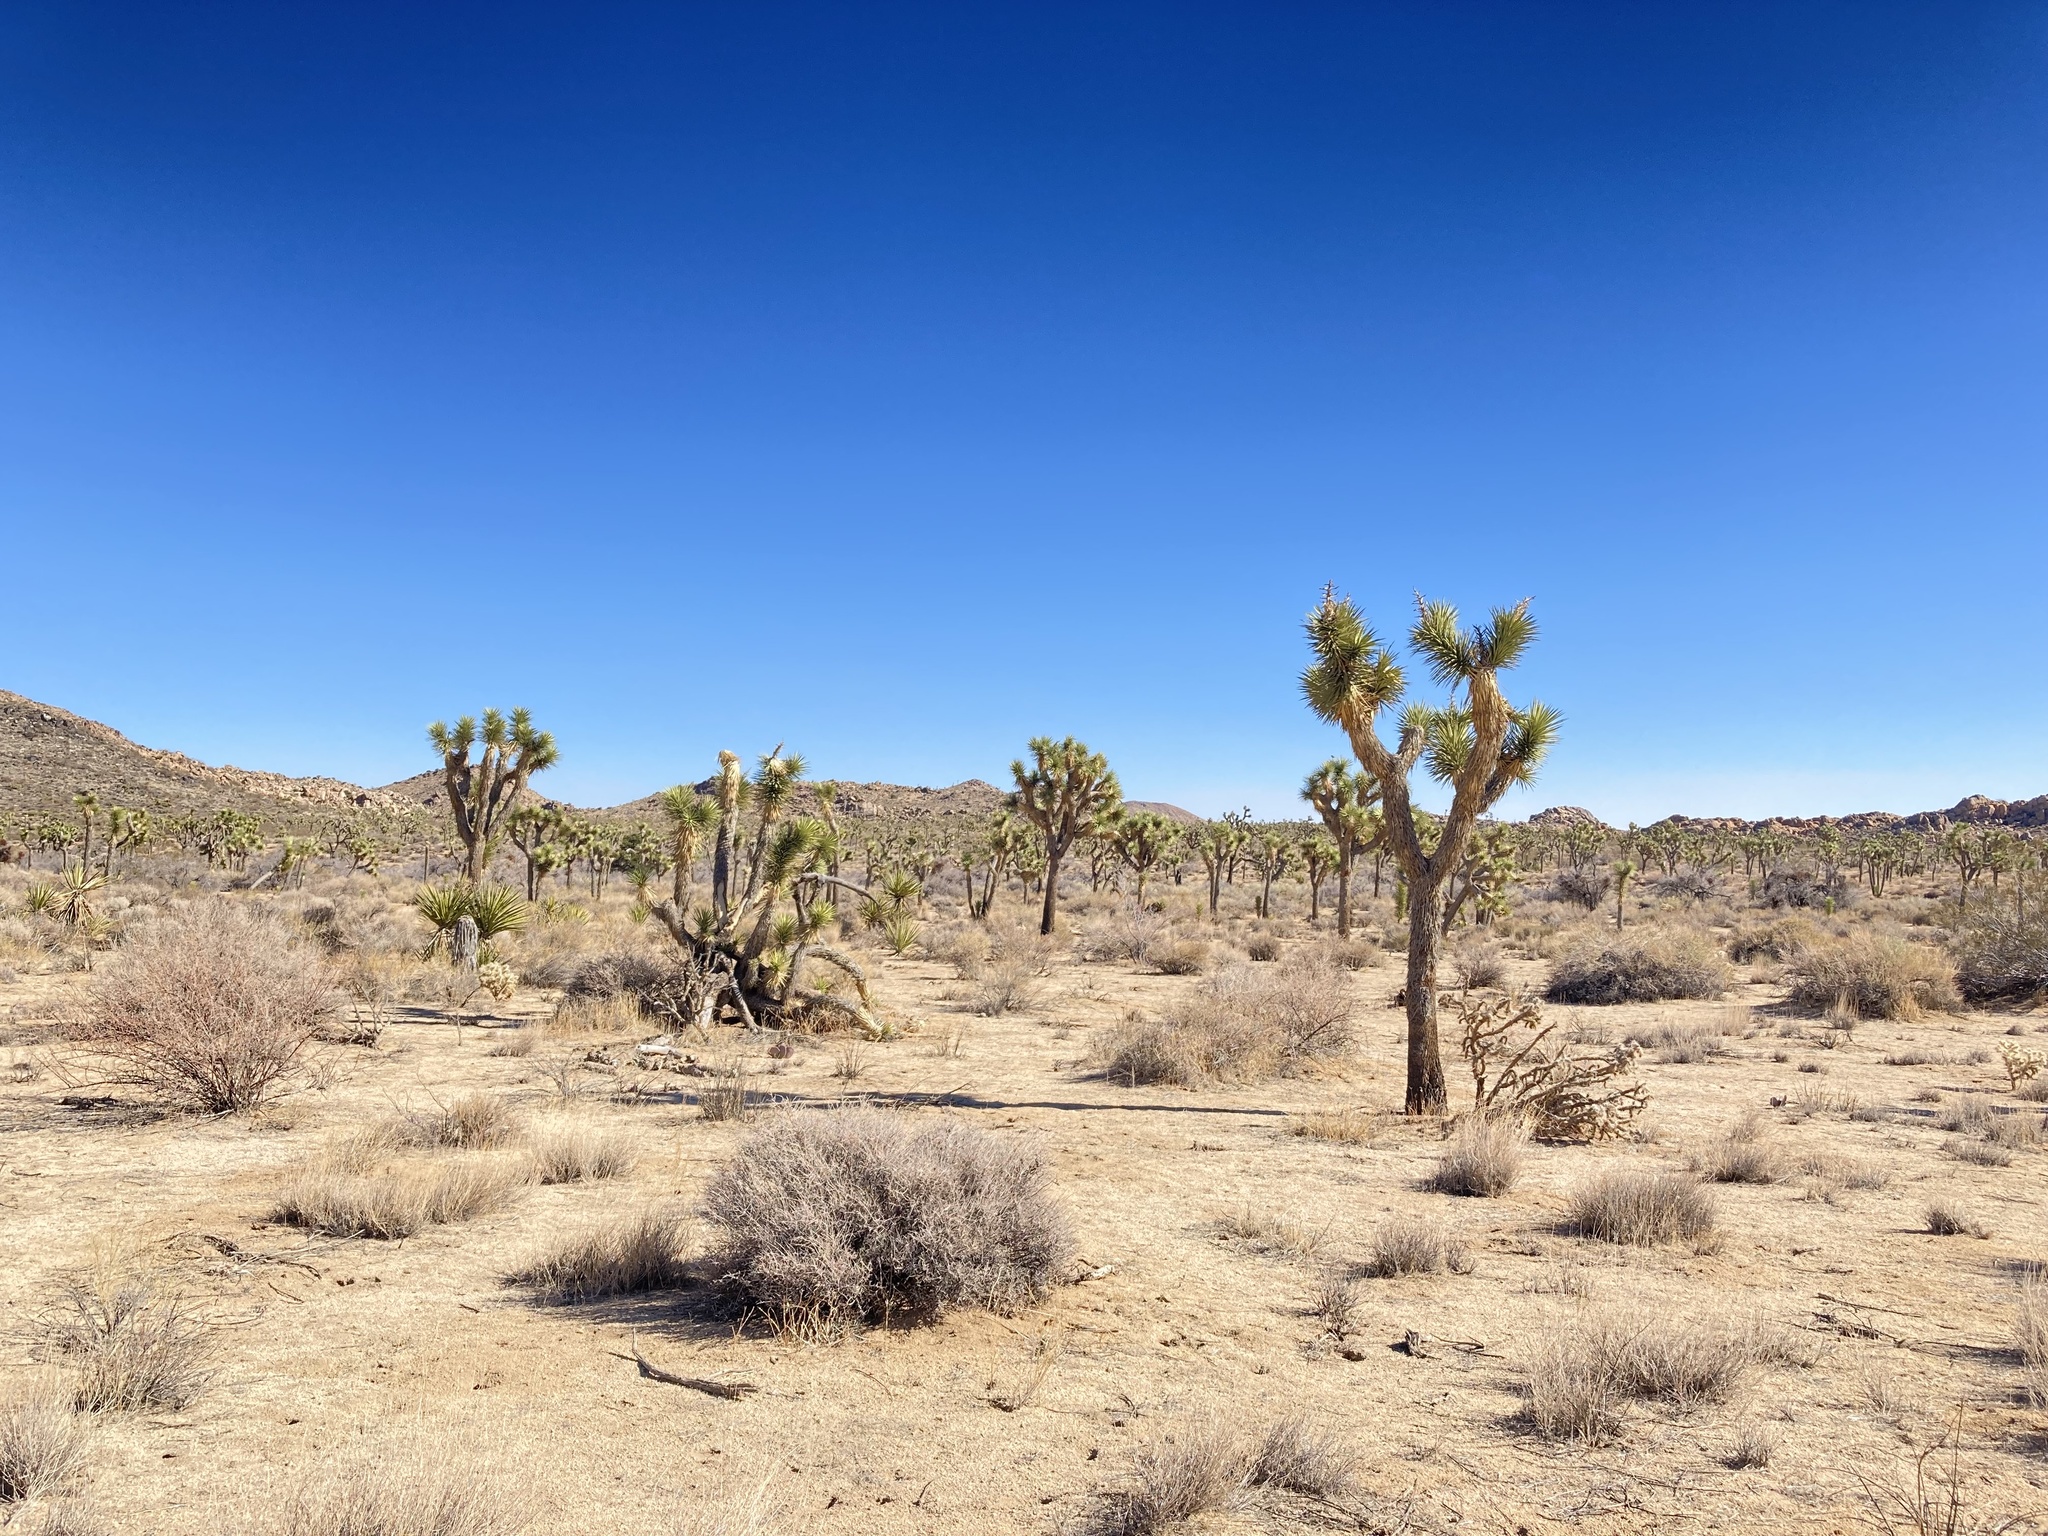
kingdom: Plantae
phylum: Tracheophyta
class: Magnoliopsida
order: Caryophyllales
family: Cactaceae
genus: Echinocereus
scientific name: Echinocereus engelmannii
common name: Engelmann's hedgehog cactus
